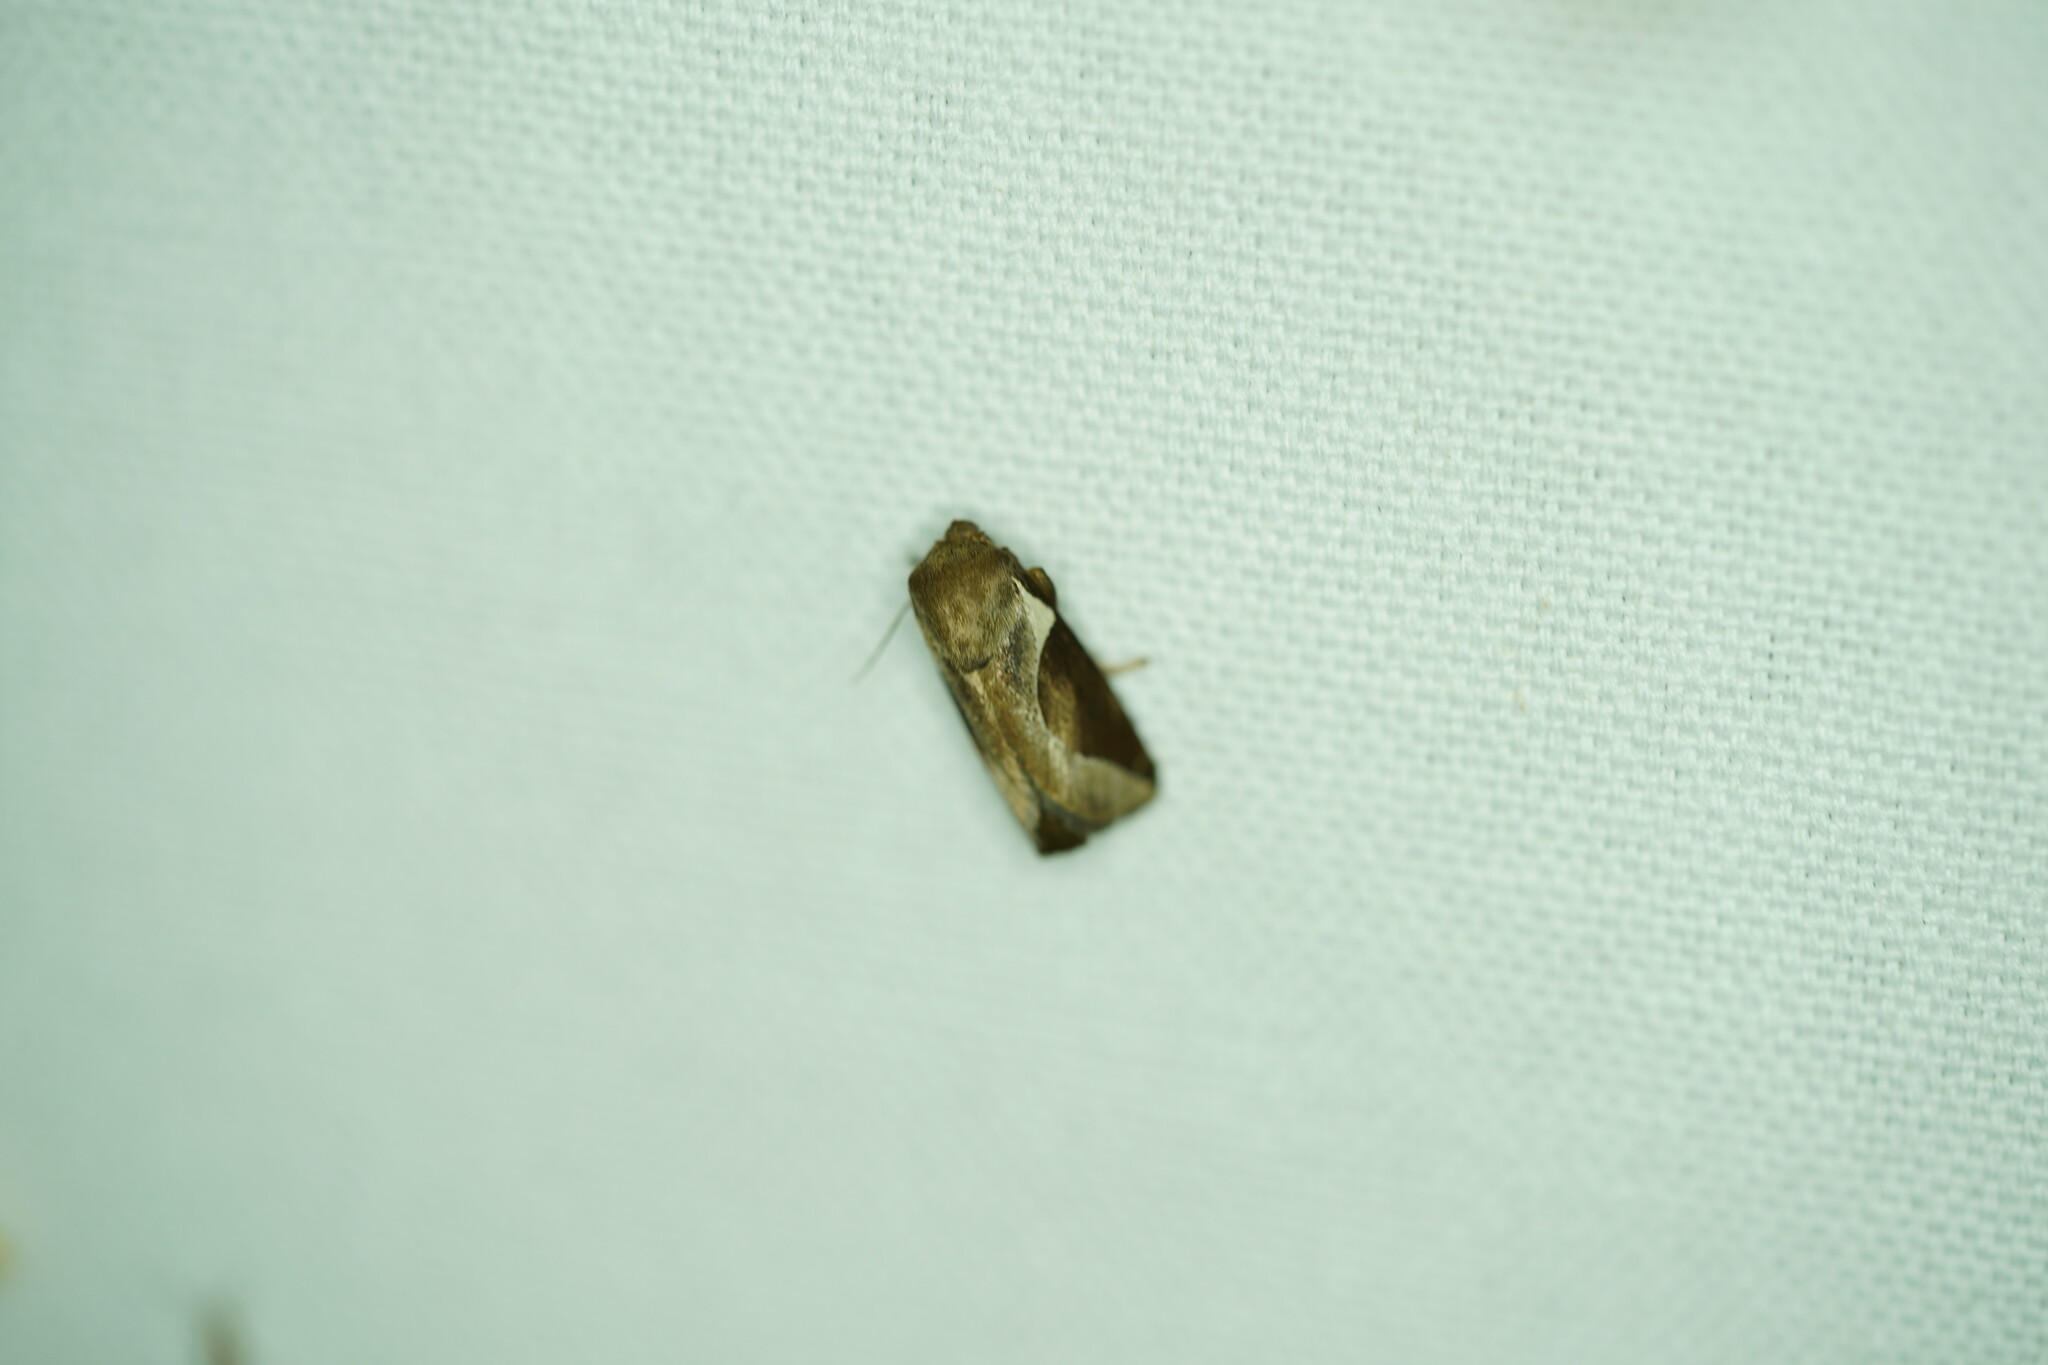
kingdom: Animalia
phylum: Arthropoda
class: Insecta
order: Lepidoptera
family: Limacodidae
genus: Prolimacodes
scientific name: Prolimacodes badia
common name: Skiff moth
